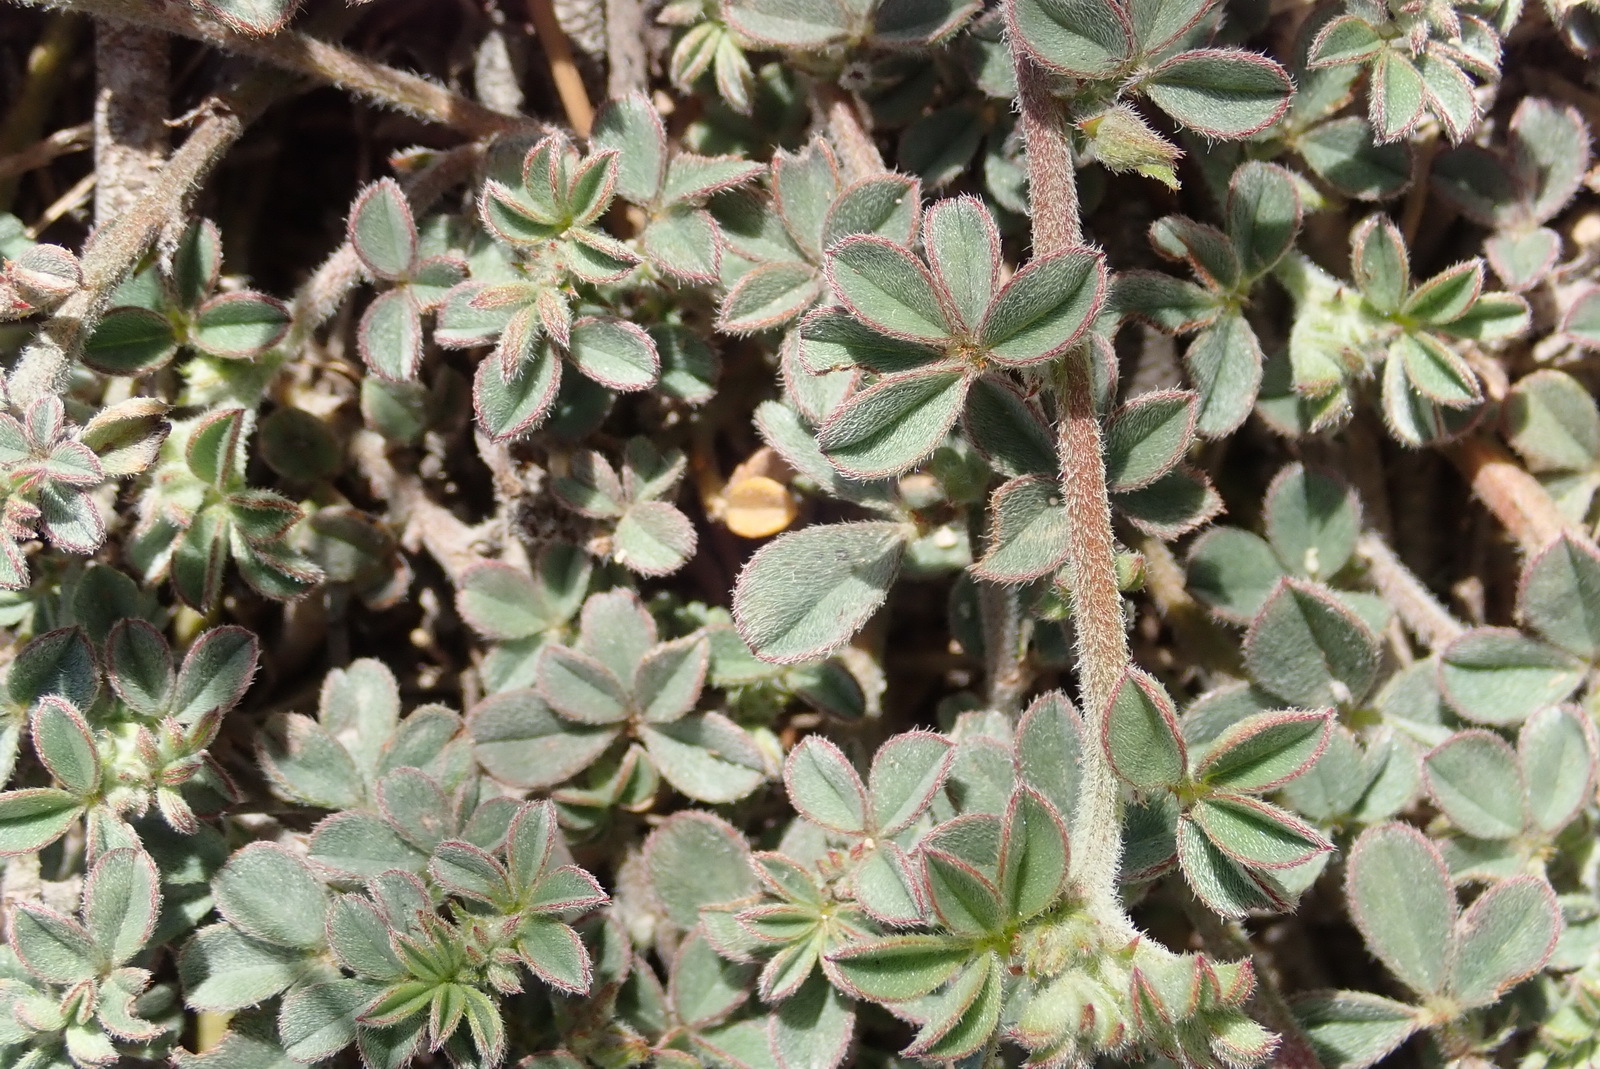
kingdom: Plantae
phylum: Tracheophyta
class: Magnoliopsida
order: Fabales
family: Fabaceae
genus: Indigofera
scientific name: Indigofera priorii
